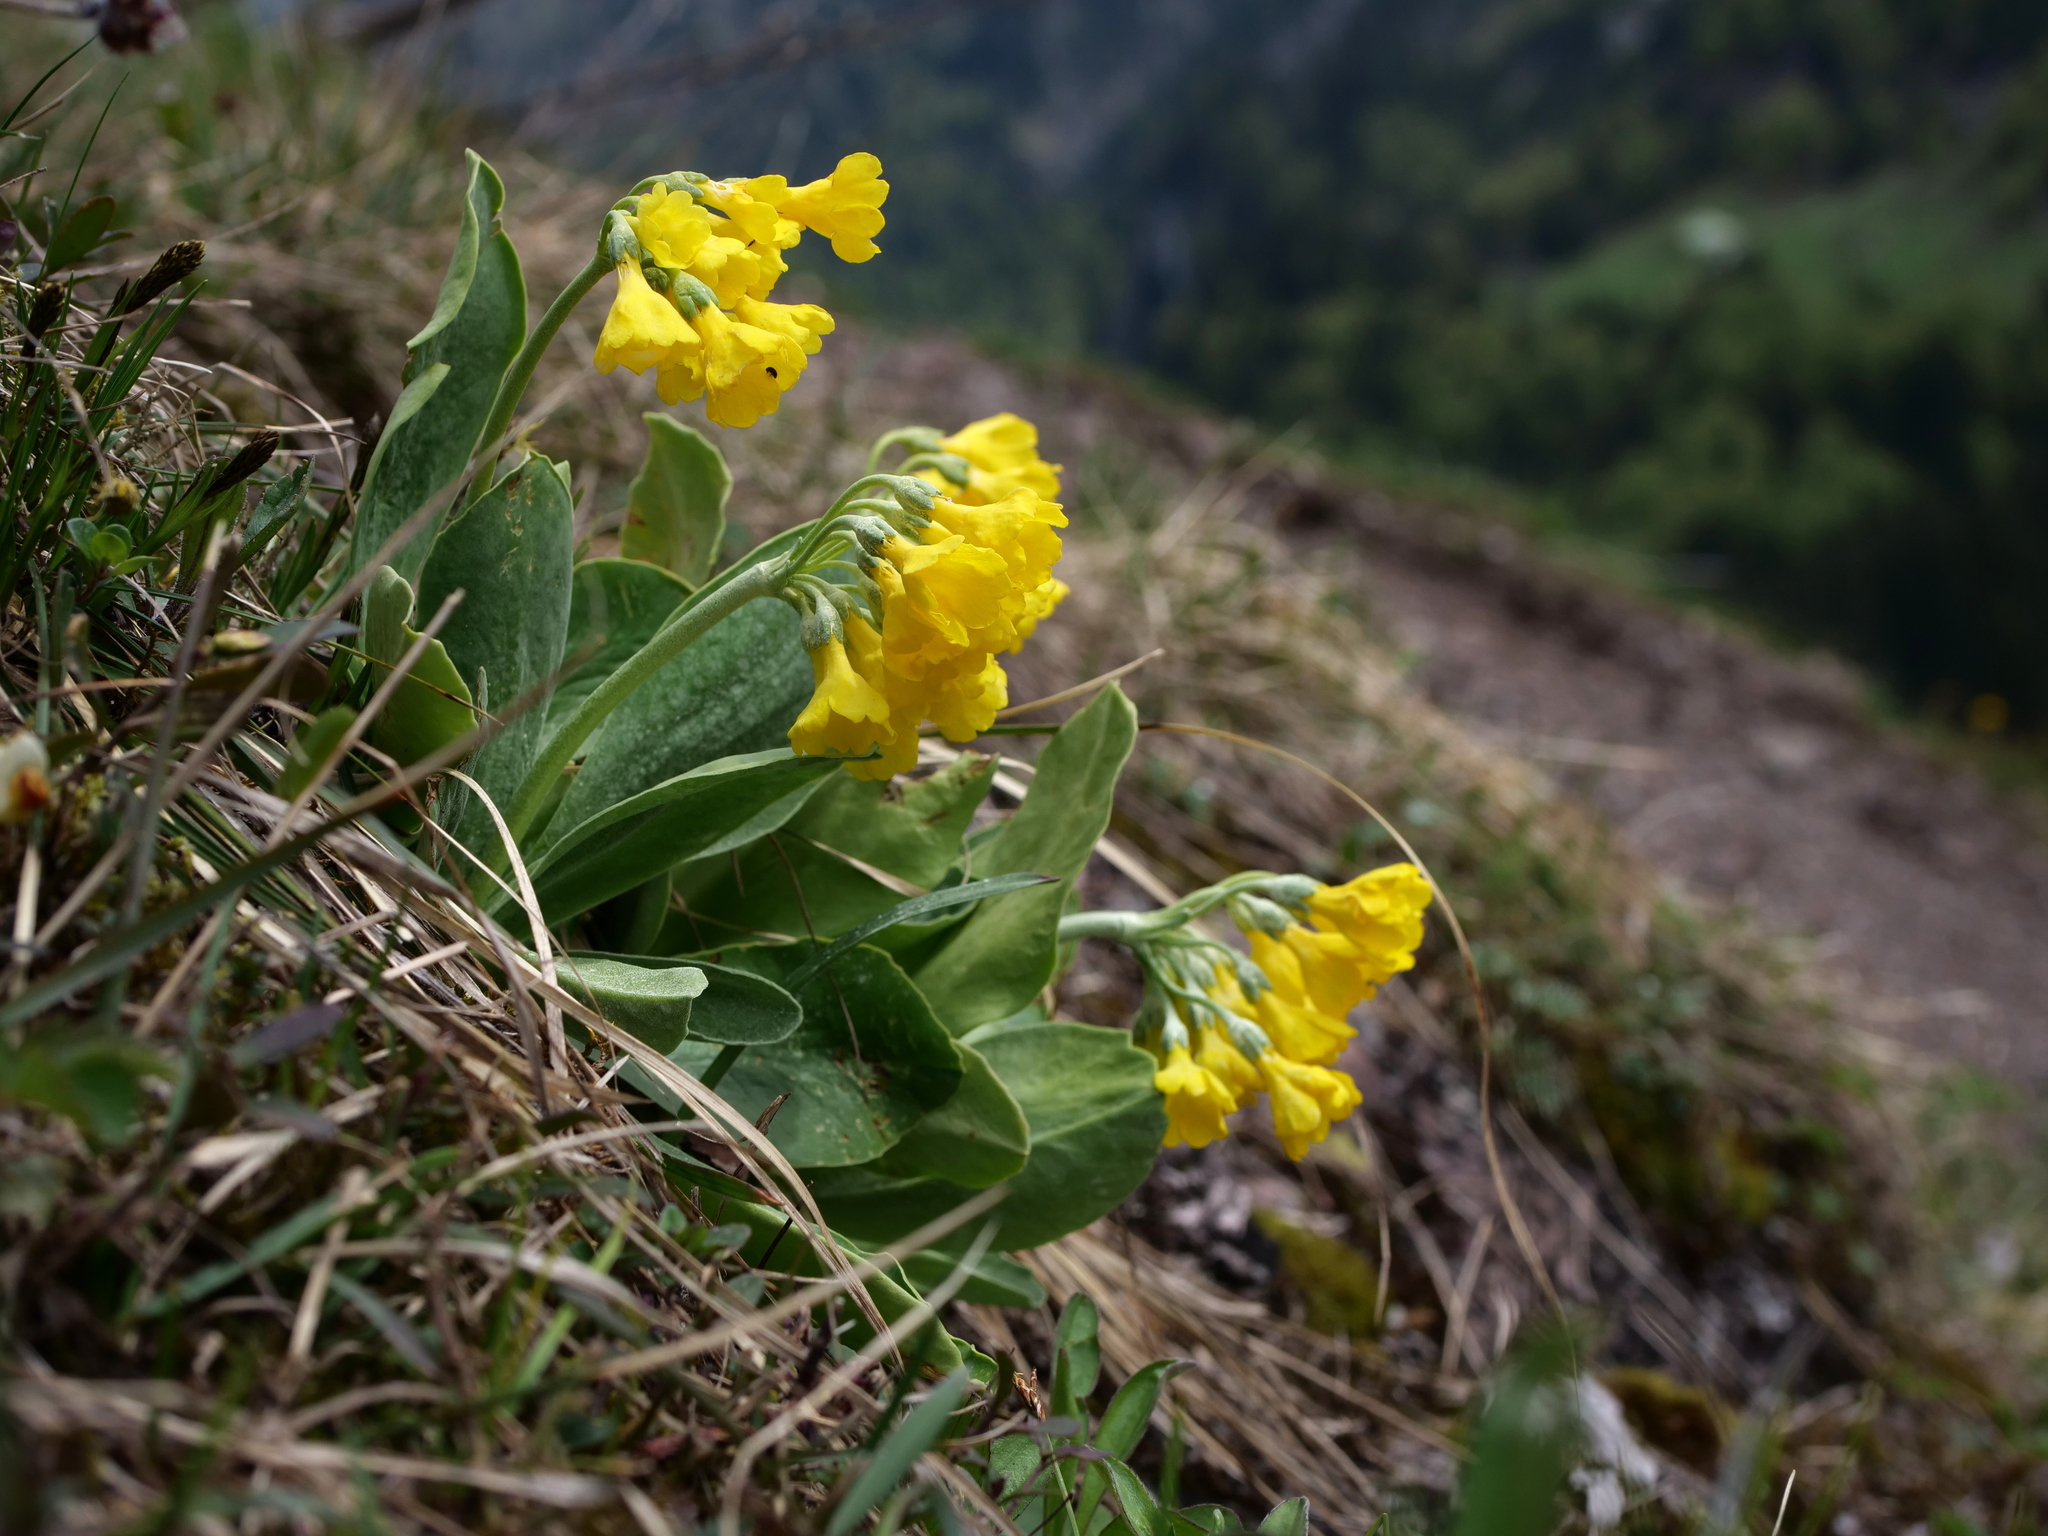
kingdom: Plantae
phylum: Tracheophyta
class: Magnoliopsida
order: Ericales
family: Primulaceae
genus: Primula
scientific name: Primula auricula
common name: Auricula
